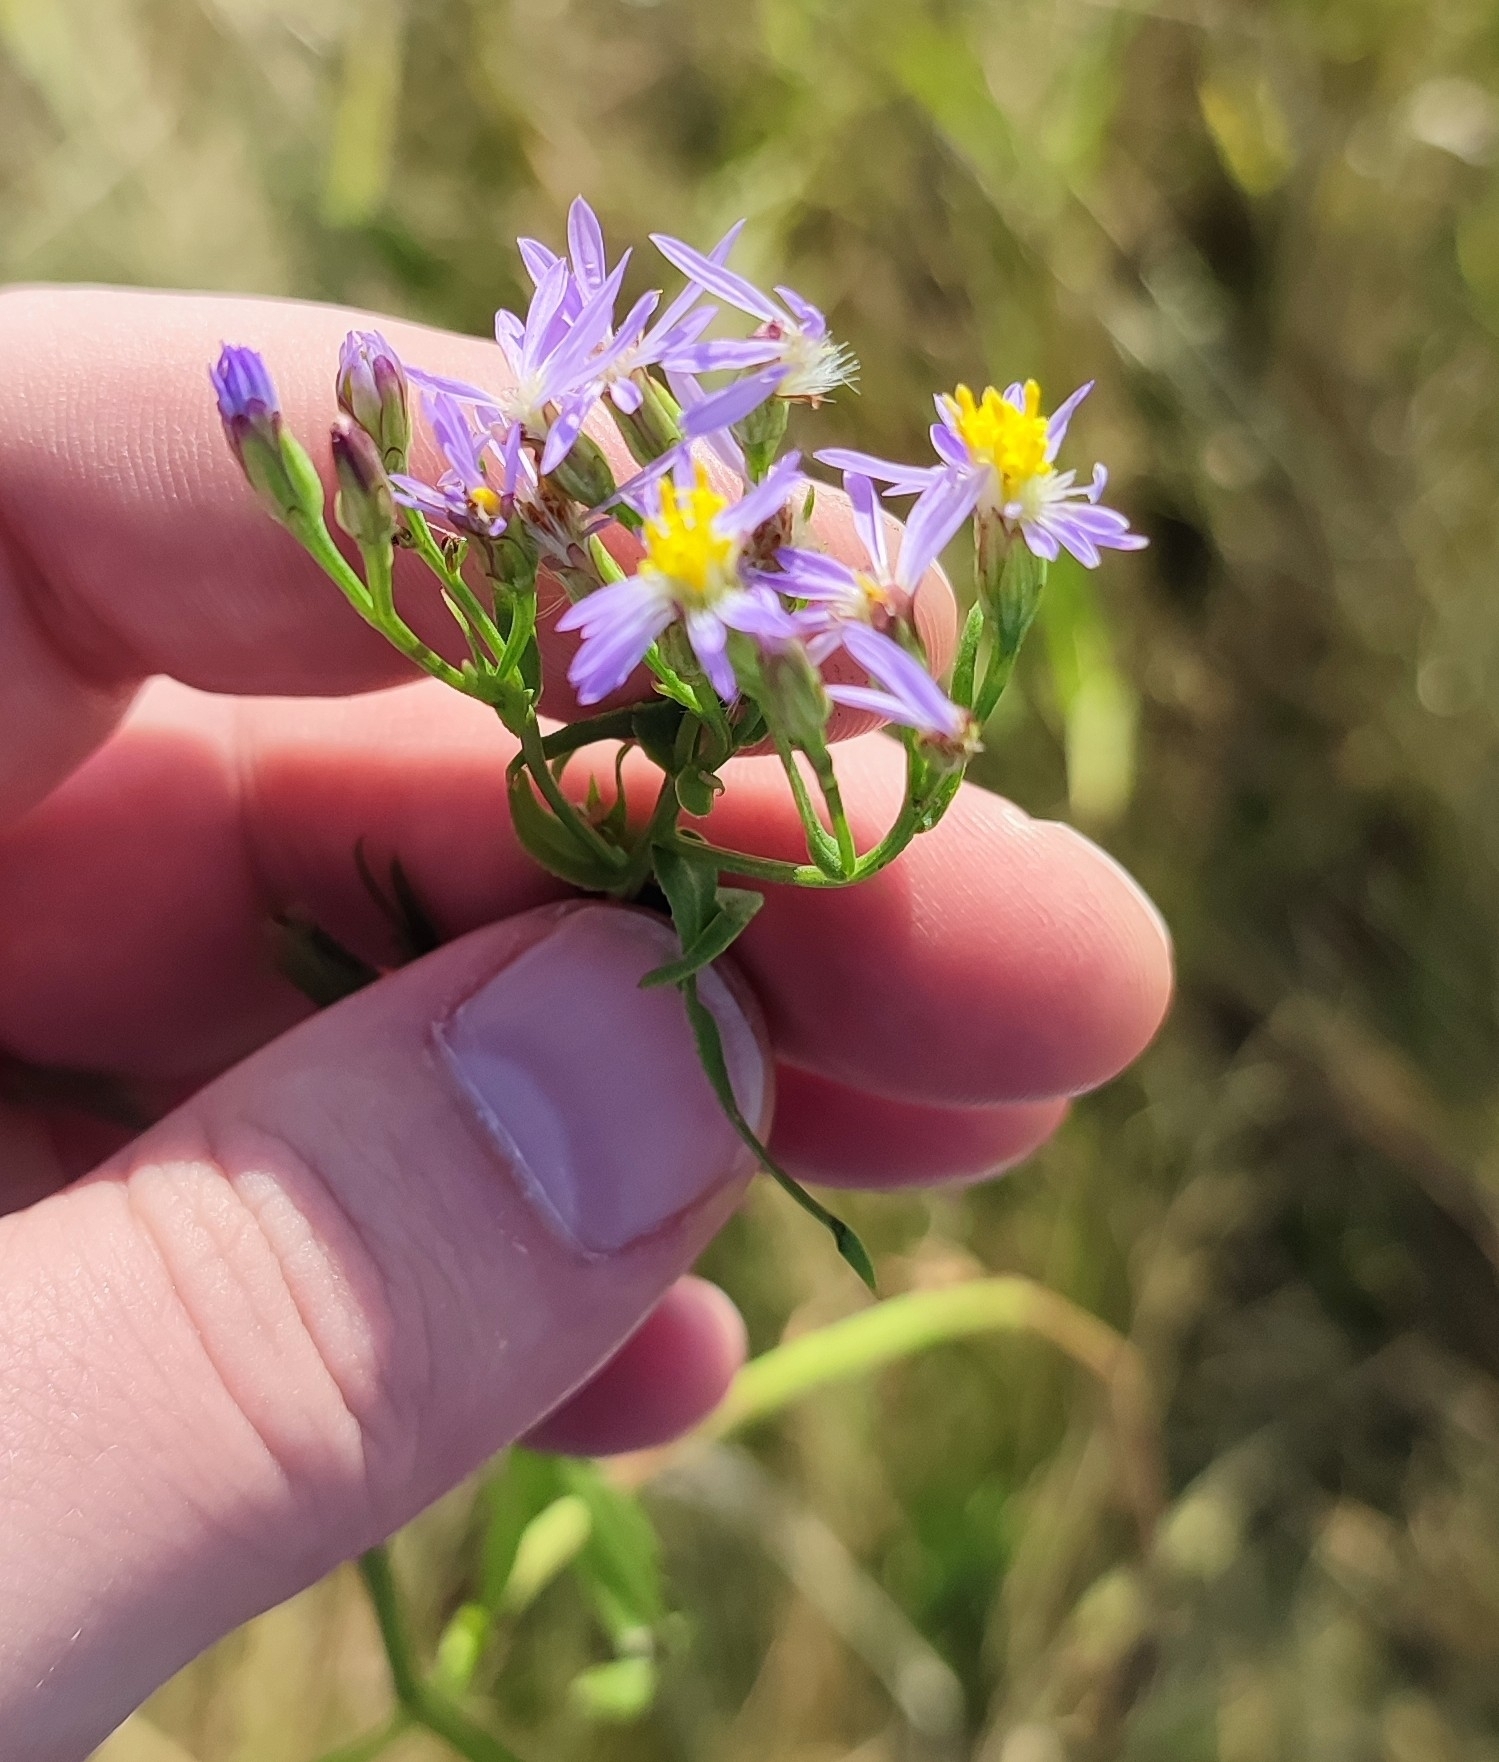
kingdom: Plantae
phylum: Tracheophyta
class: Magnoliopsida
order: Asterales
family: Asteraceae
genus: Tripolium
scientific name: Tripolium pannonicum
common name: Sea aster
